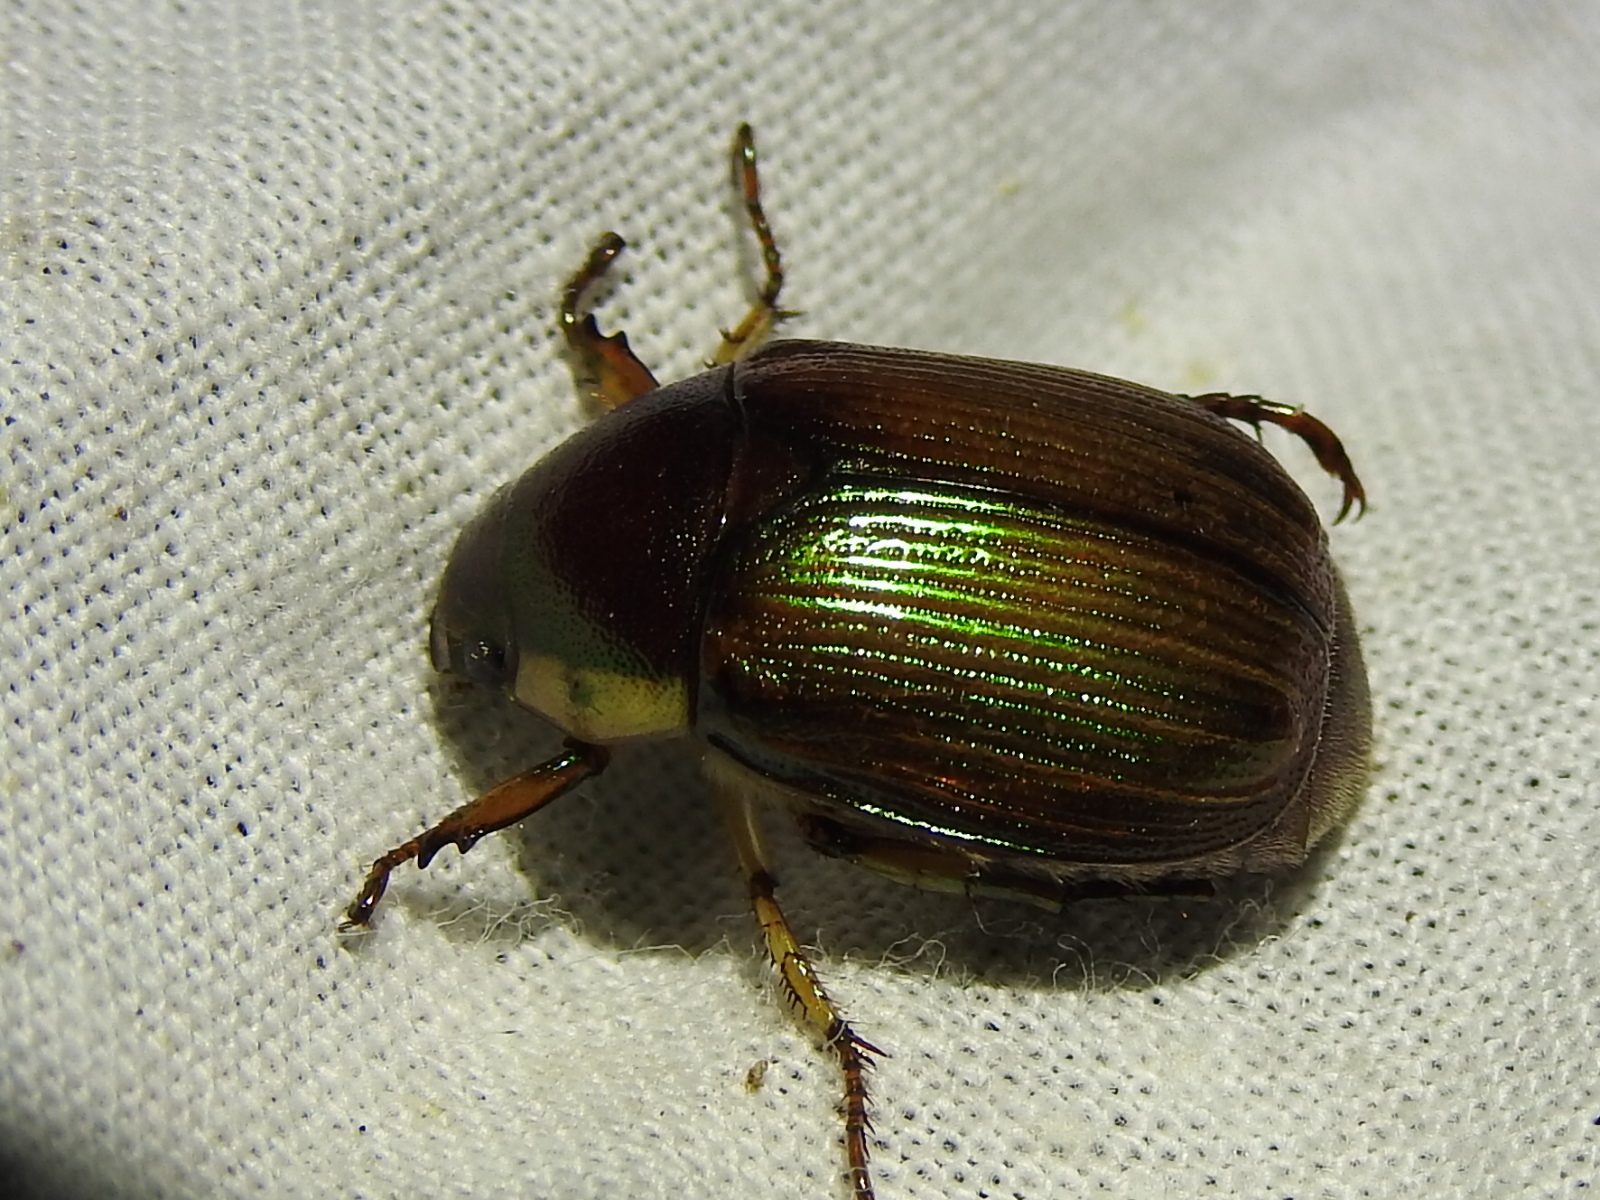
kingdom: Animalia
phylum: Arthropoda
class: Insecta
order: Coleoptera
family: Scarabaeidae
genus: Callistethus
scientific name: Callistethus marginatus
